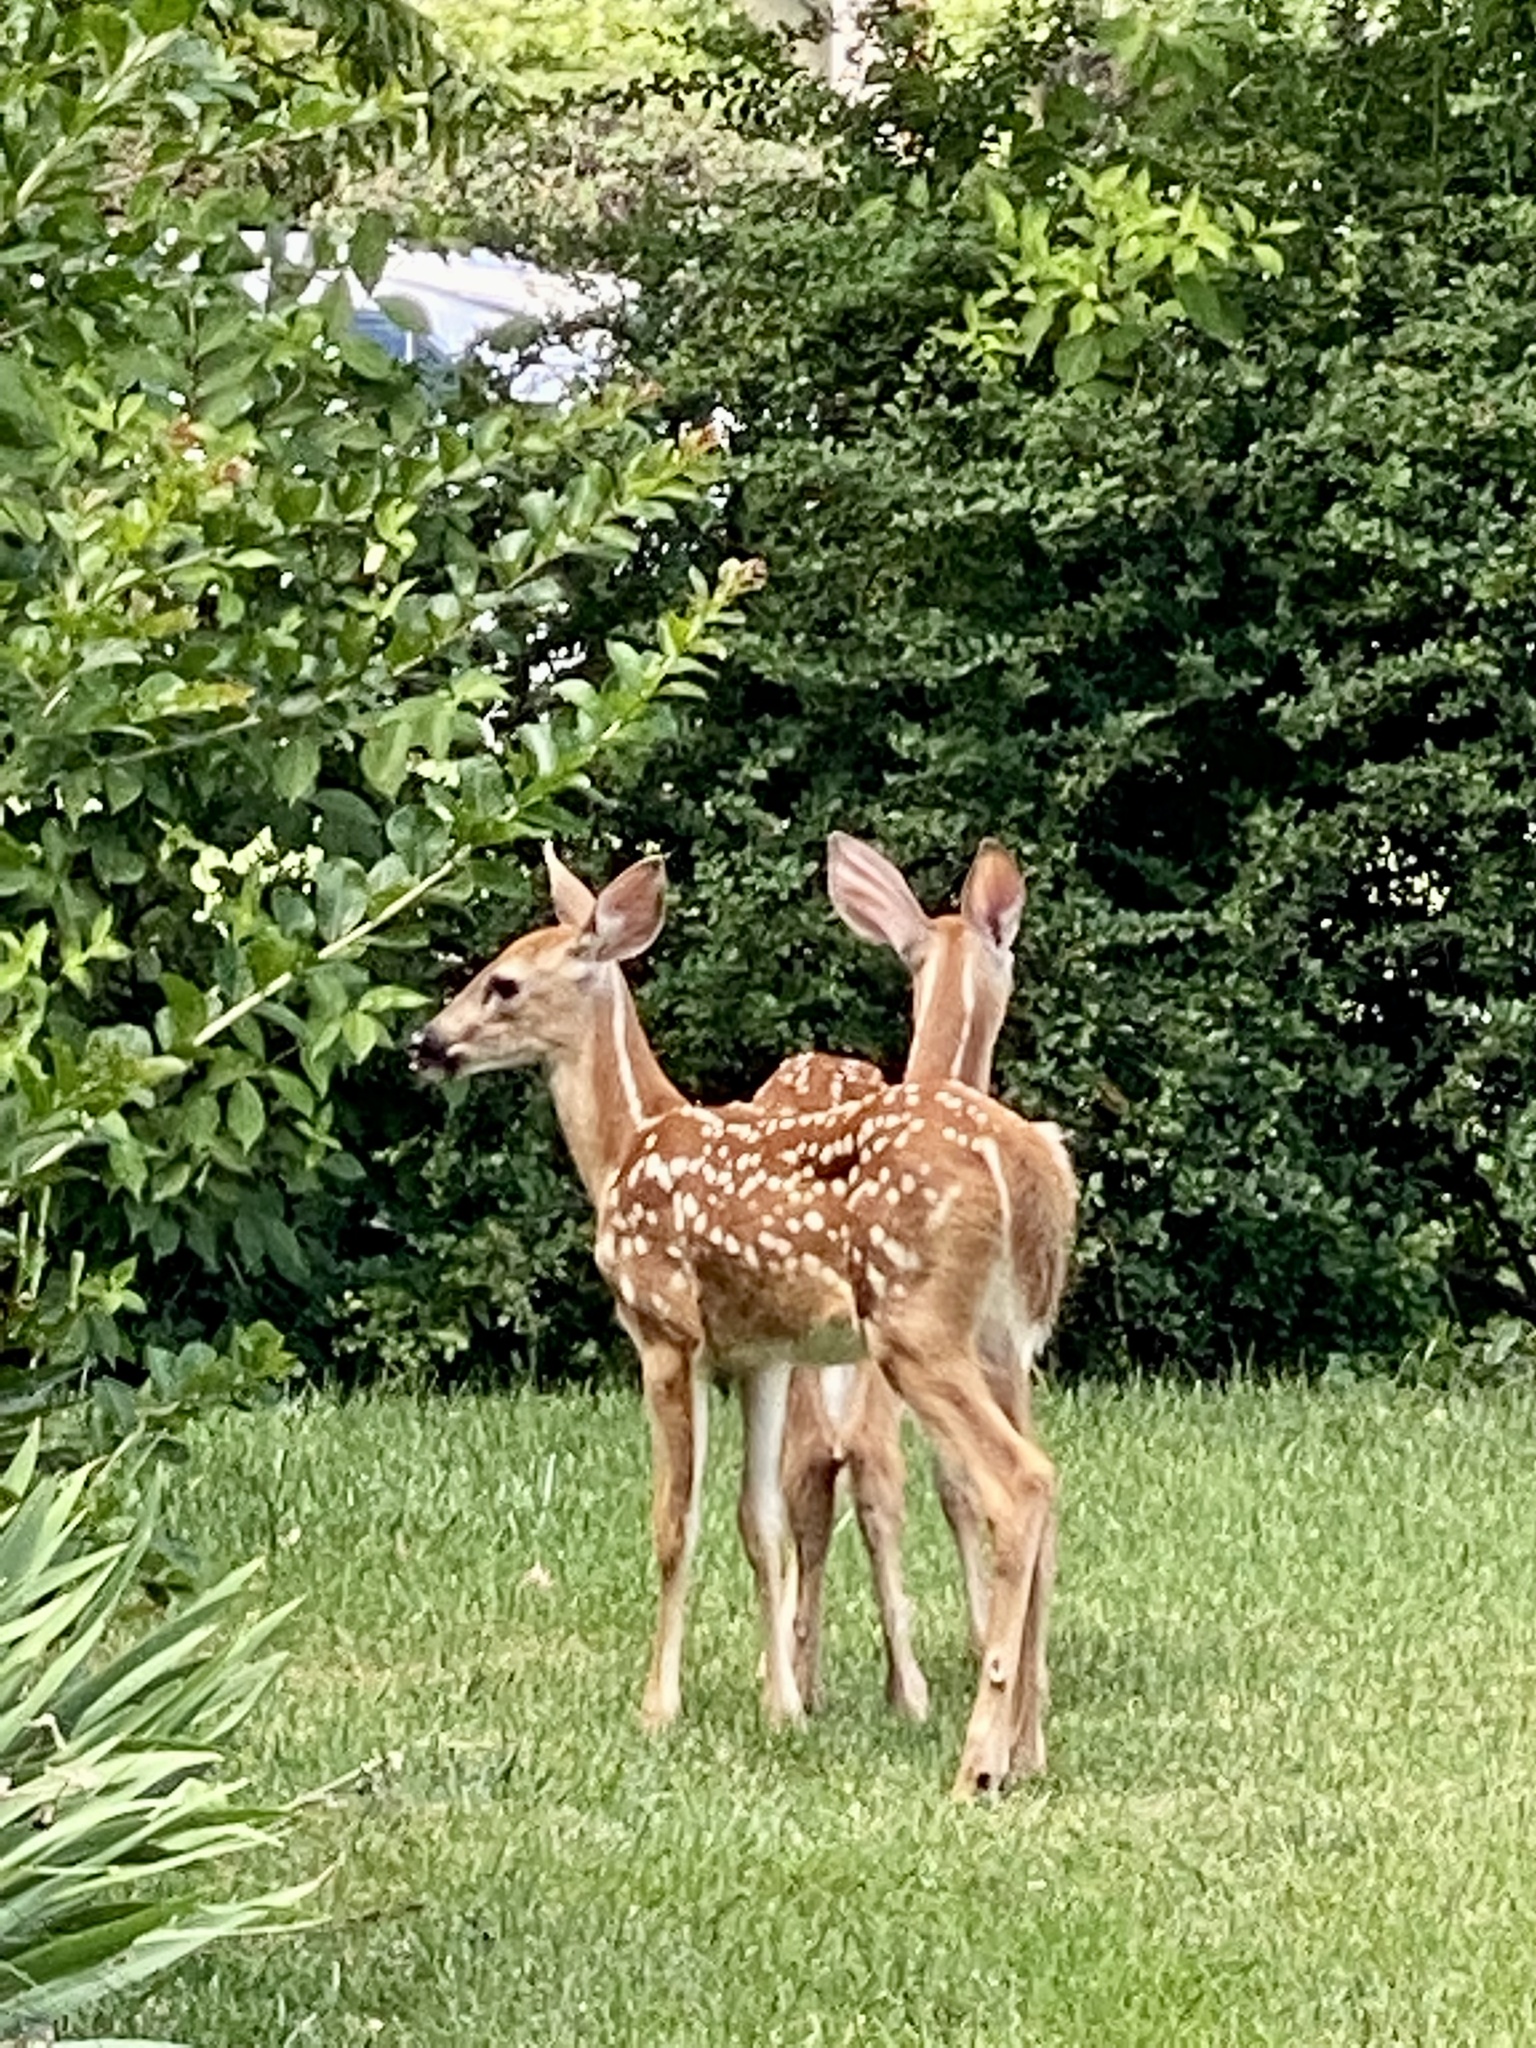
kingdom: Animalia
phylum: Chordata
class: Mammalia
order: Artiodactyla
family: Cervidae
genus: Odocoileus
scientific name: Odocoileus virginianus
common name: White-tailed deer
